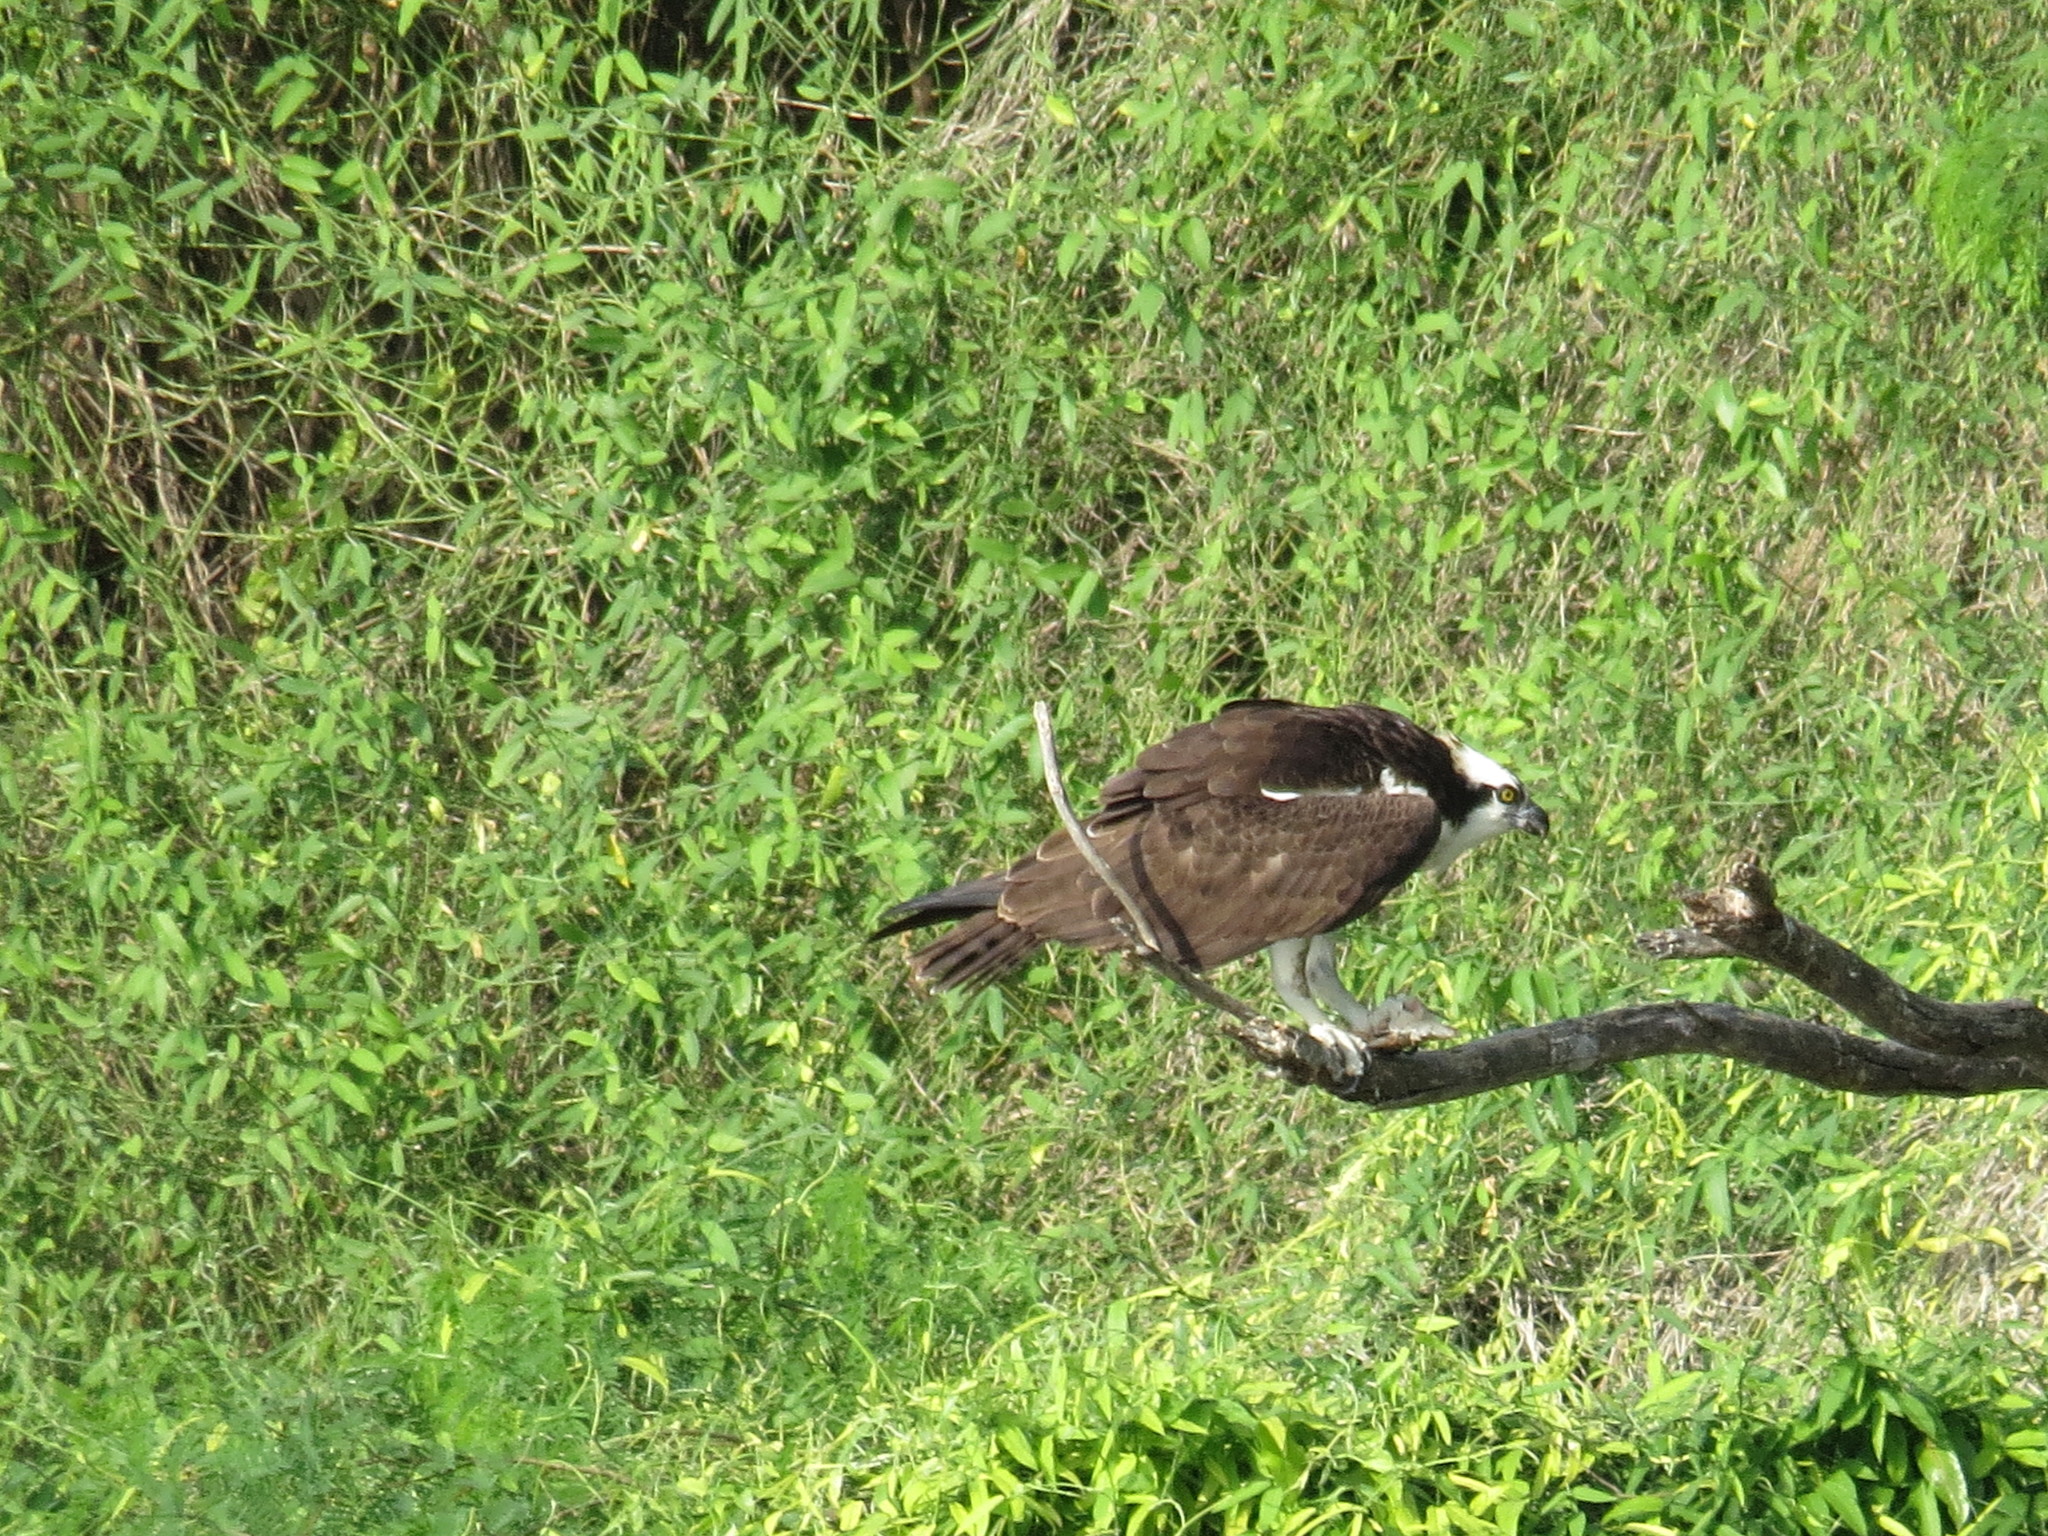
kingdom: Animalia
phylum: Chordata
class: Aves
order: Accipitriformes
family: Pandionidae
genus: Pandion
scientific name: Pandion haliaetus
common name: Osprey
